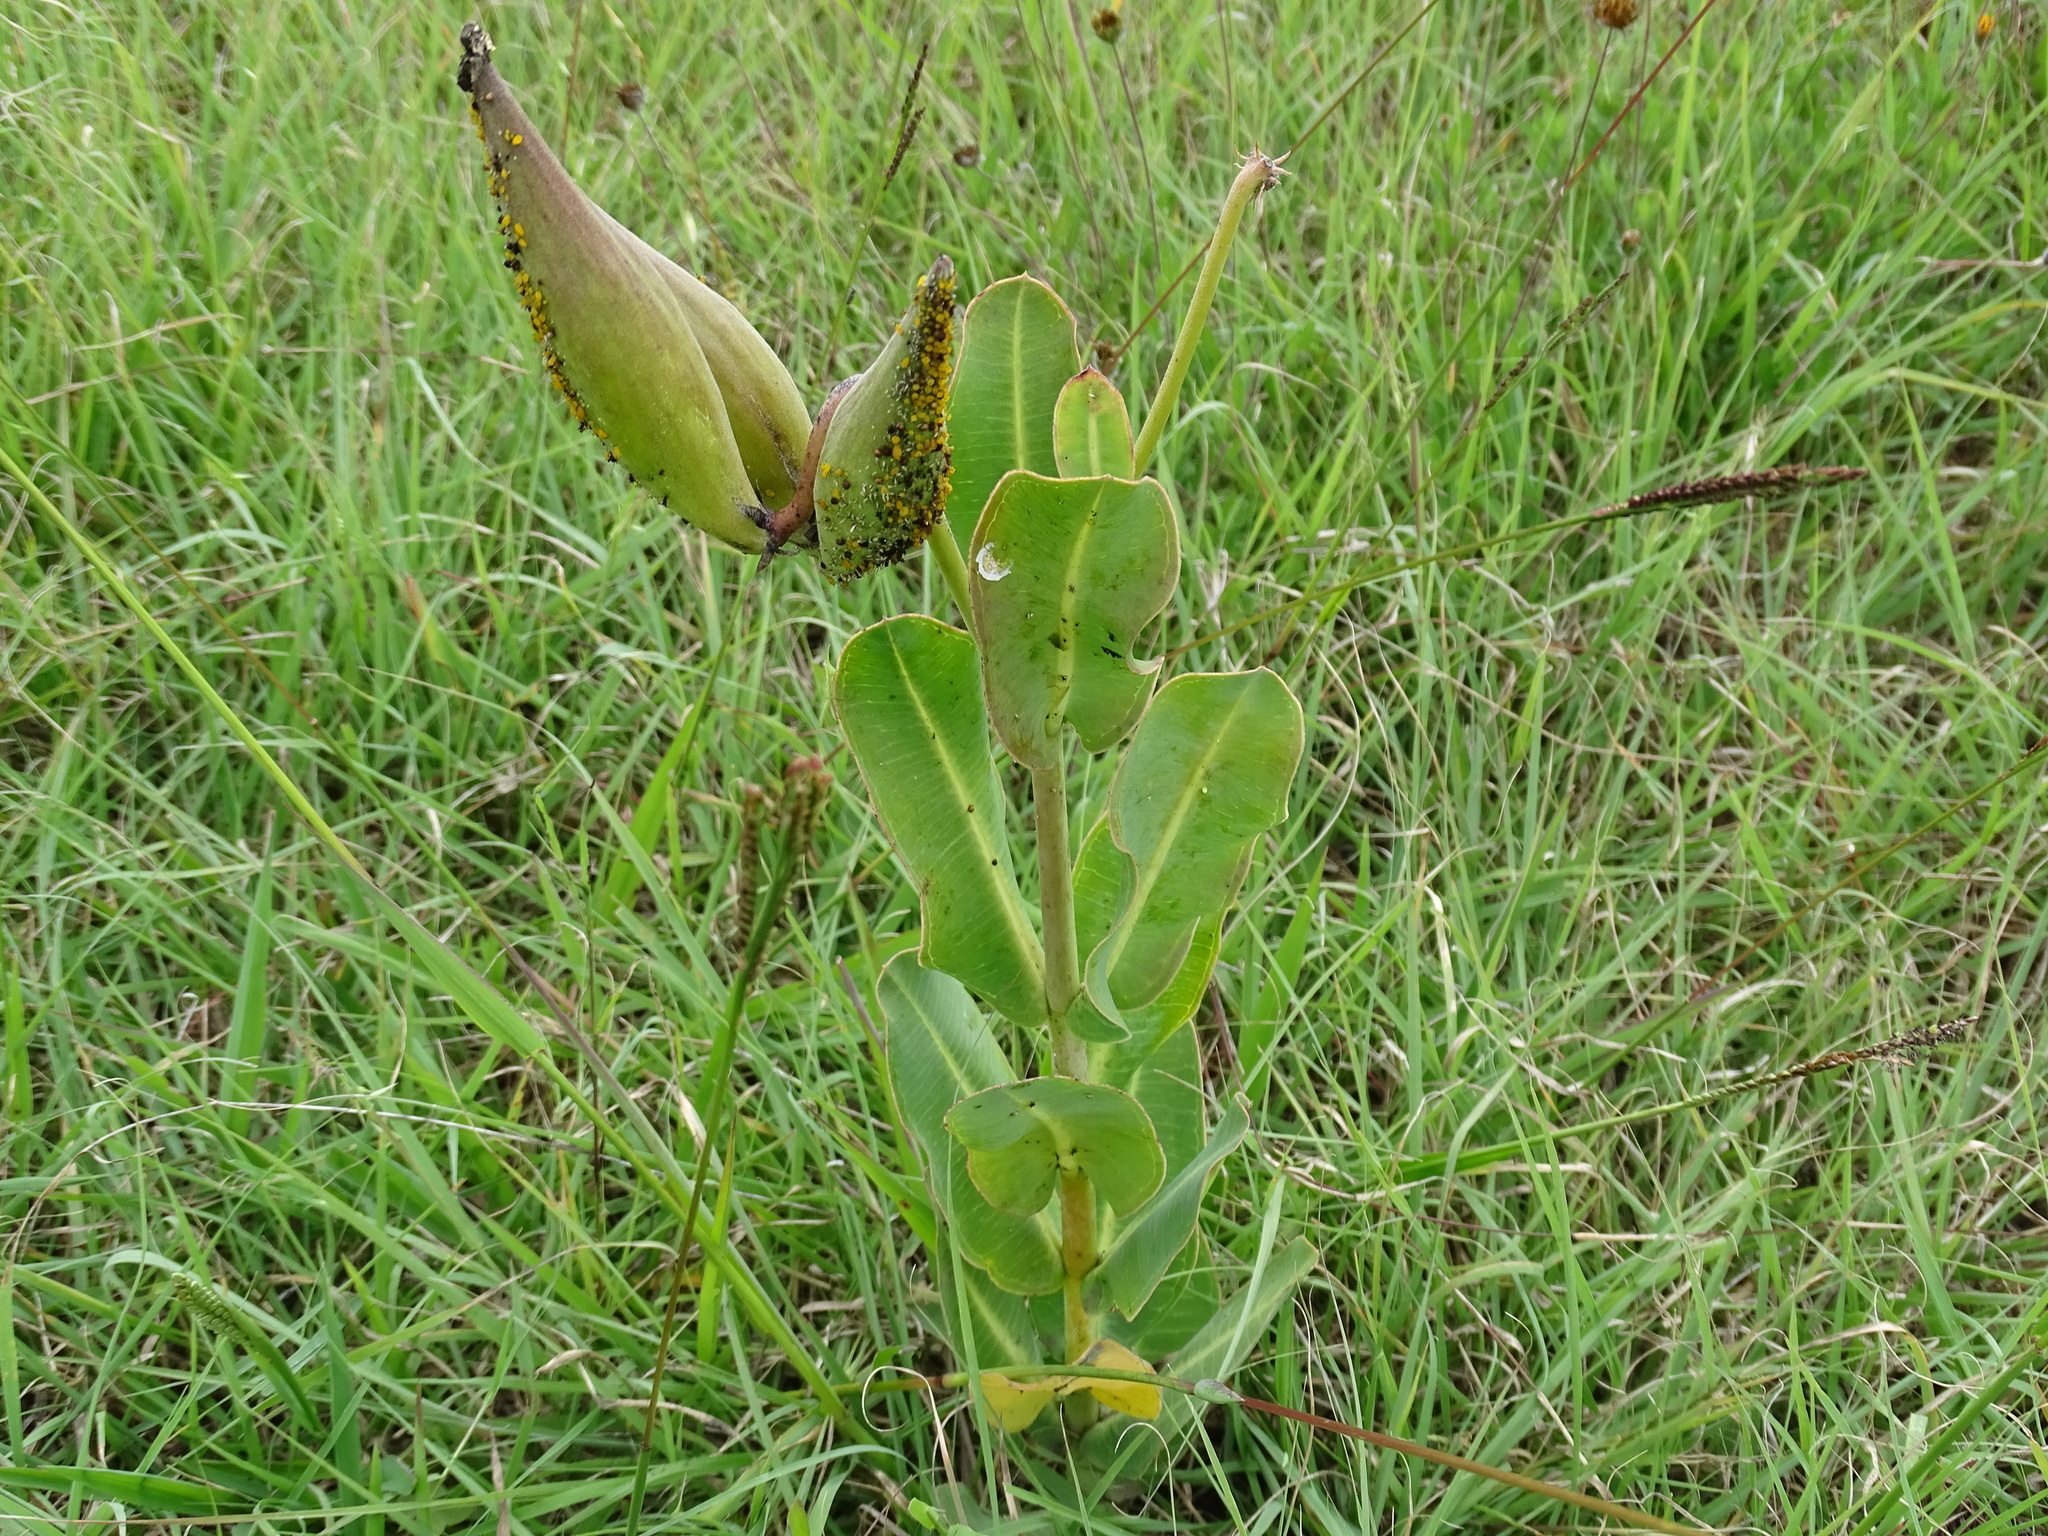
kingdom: Plantae
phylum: Tracheophyta
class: Magnoliopsida
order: Gentianales
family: Apocynaceae
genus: Asclepias
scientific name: Asclepias glaucescens
